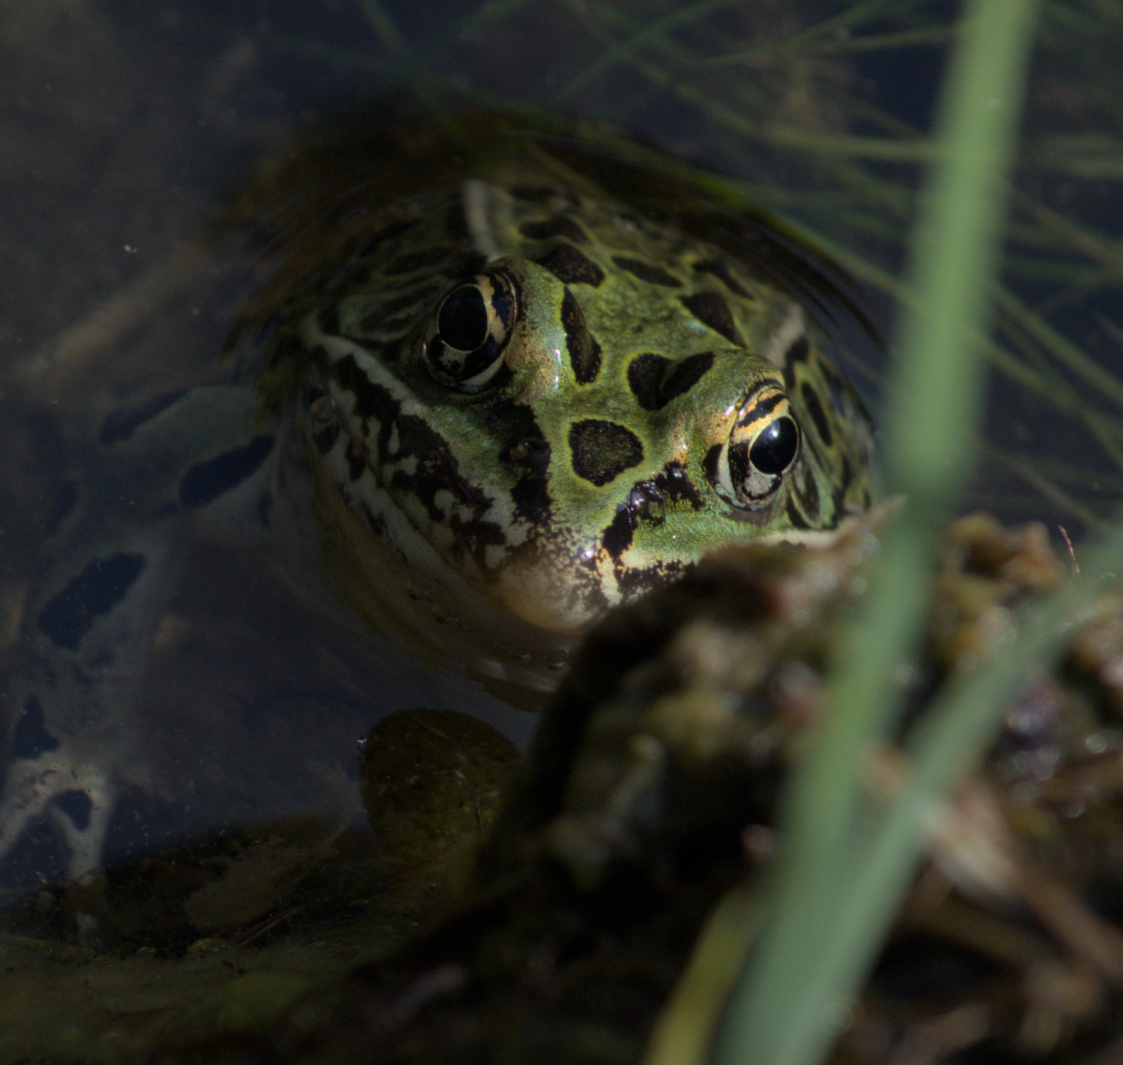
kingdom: Animalia
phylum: Chordata
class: Amphibia
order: Anura
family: Ranidae
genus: Lithobates
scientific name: Lithobates pipiens
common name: Northern leopard frog
